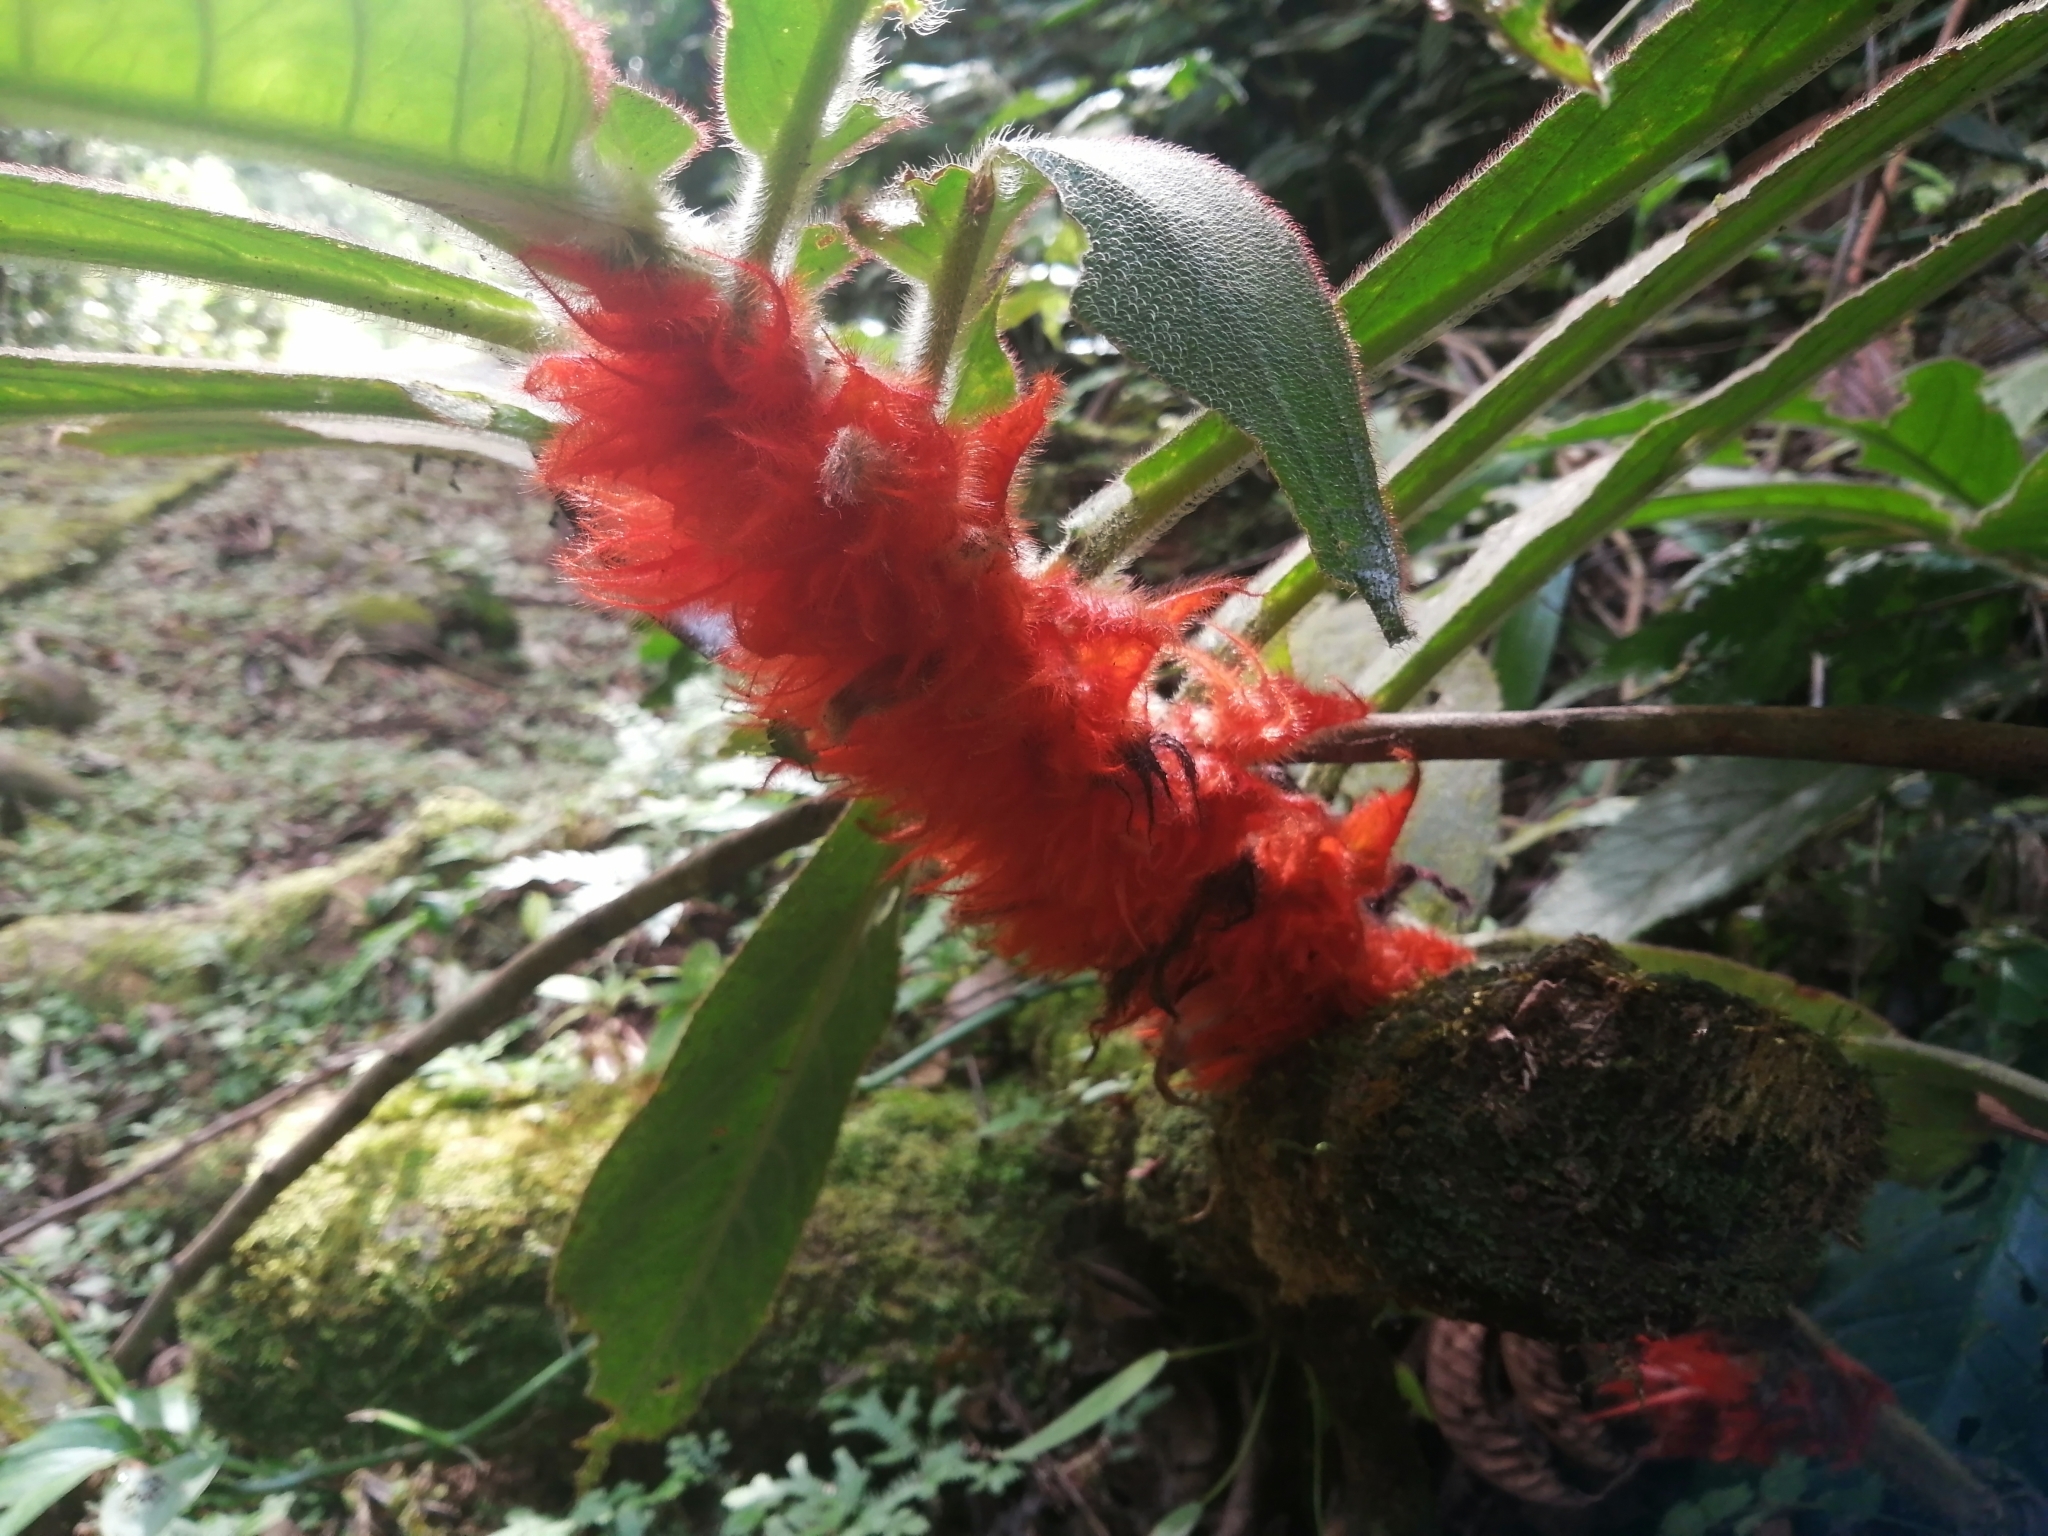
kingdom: Plantae
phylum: Tracheophyta
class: Magnoliopsida
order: Lamiales
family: Gesneriaceae
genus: Columnea
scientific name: Columnea purpurata
